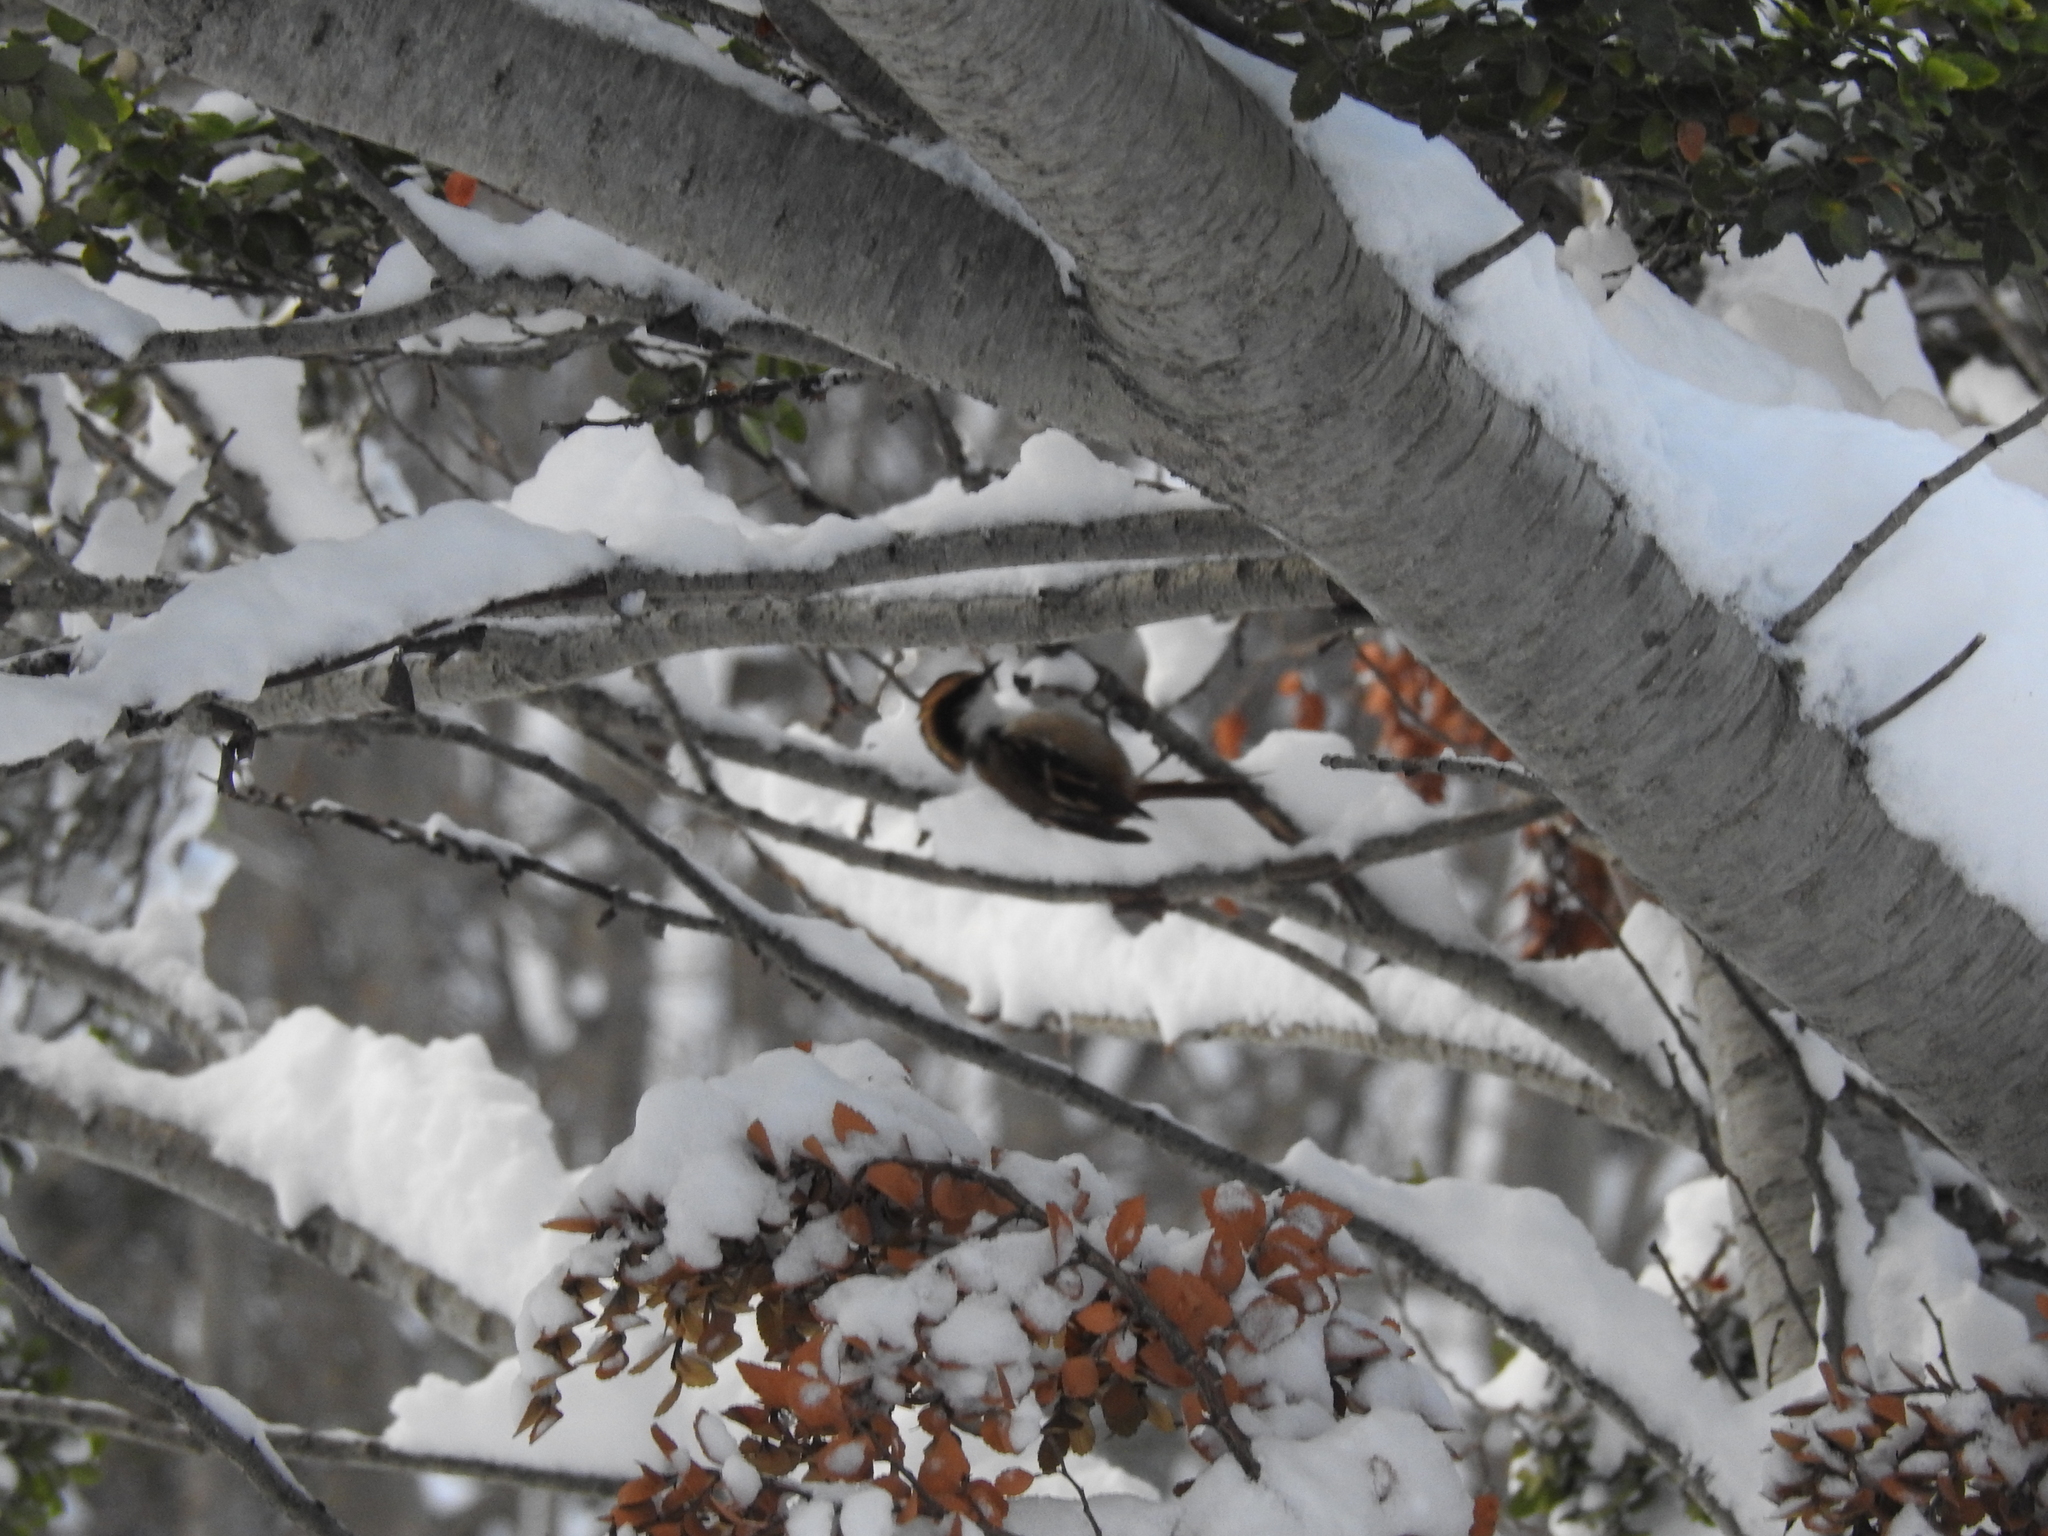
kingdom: Animalia
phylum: Chordata
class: Aves
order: Passeriformes
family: Furnariidae
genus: Aphrastura
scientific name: Aphrastura spinicauda
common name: Thorn-tailed rayadito
